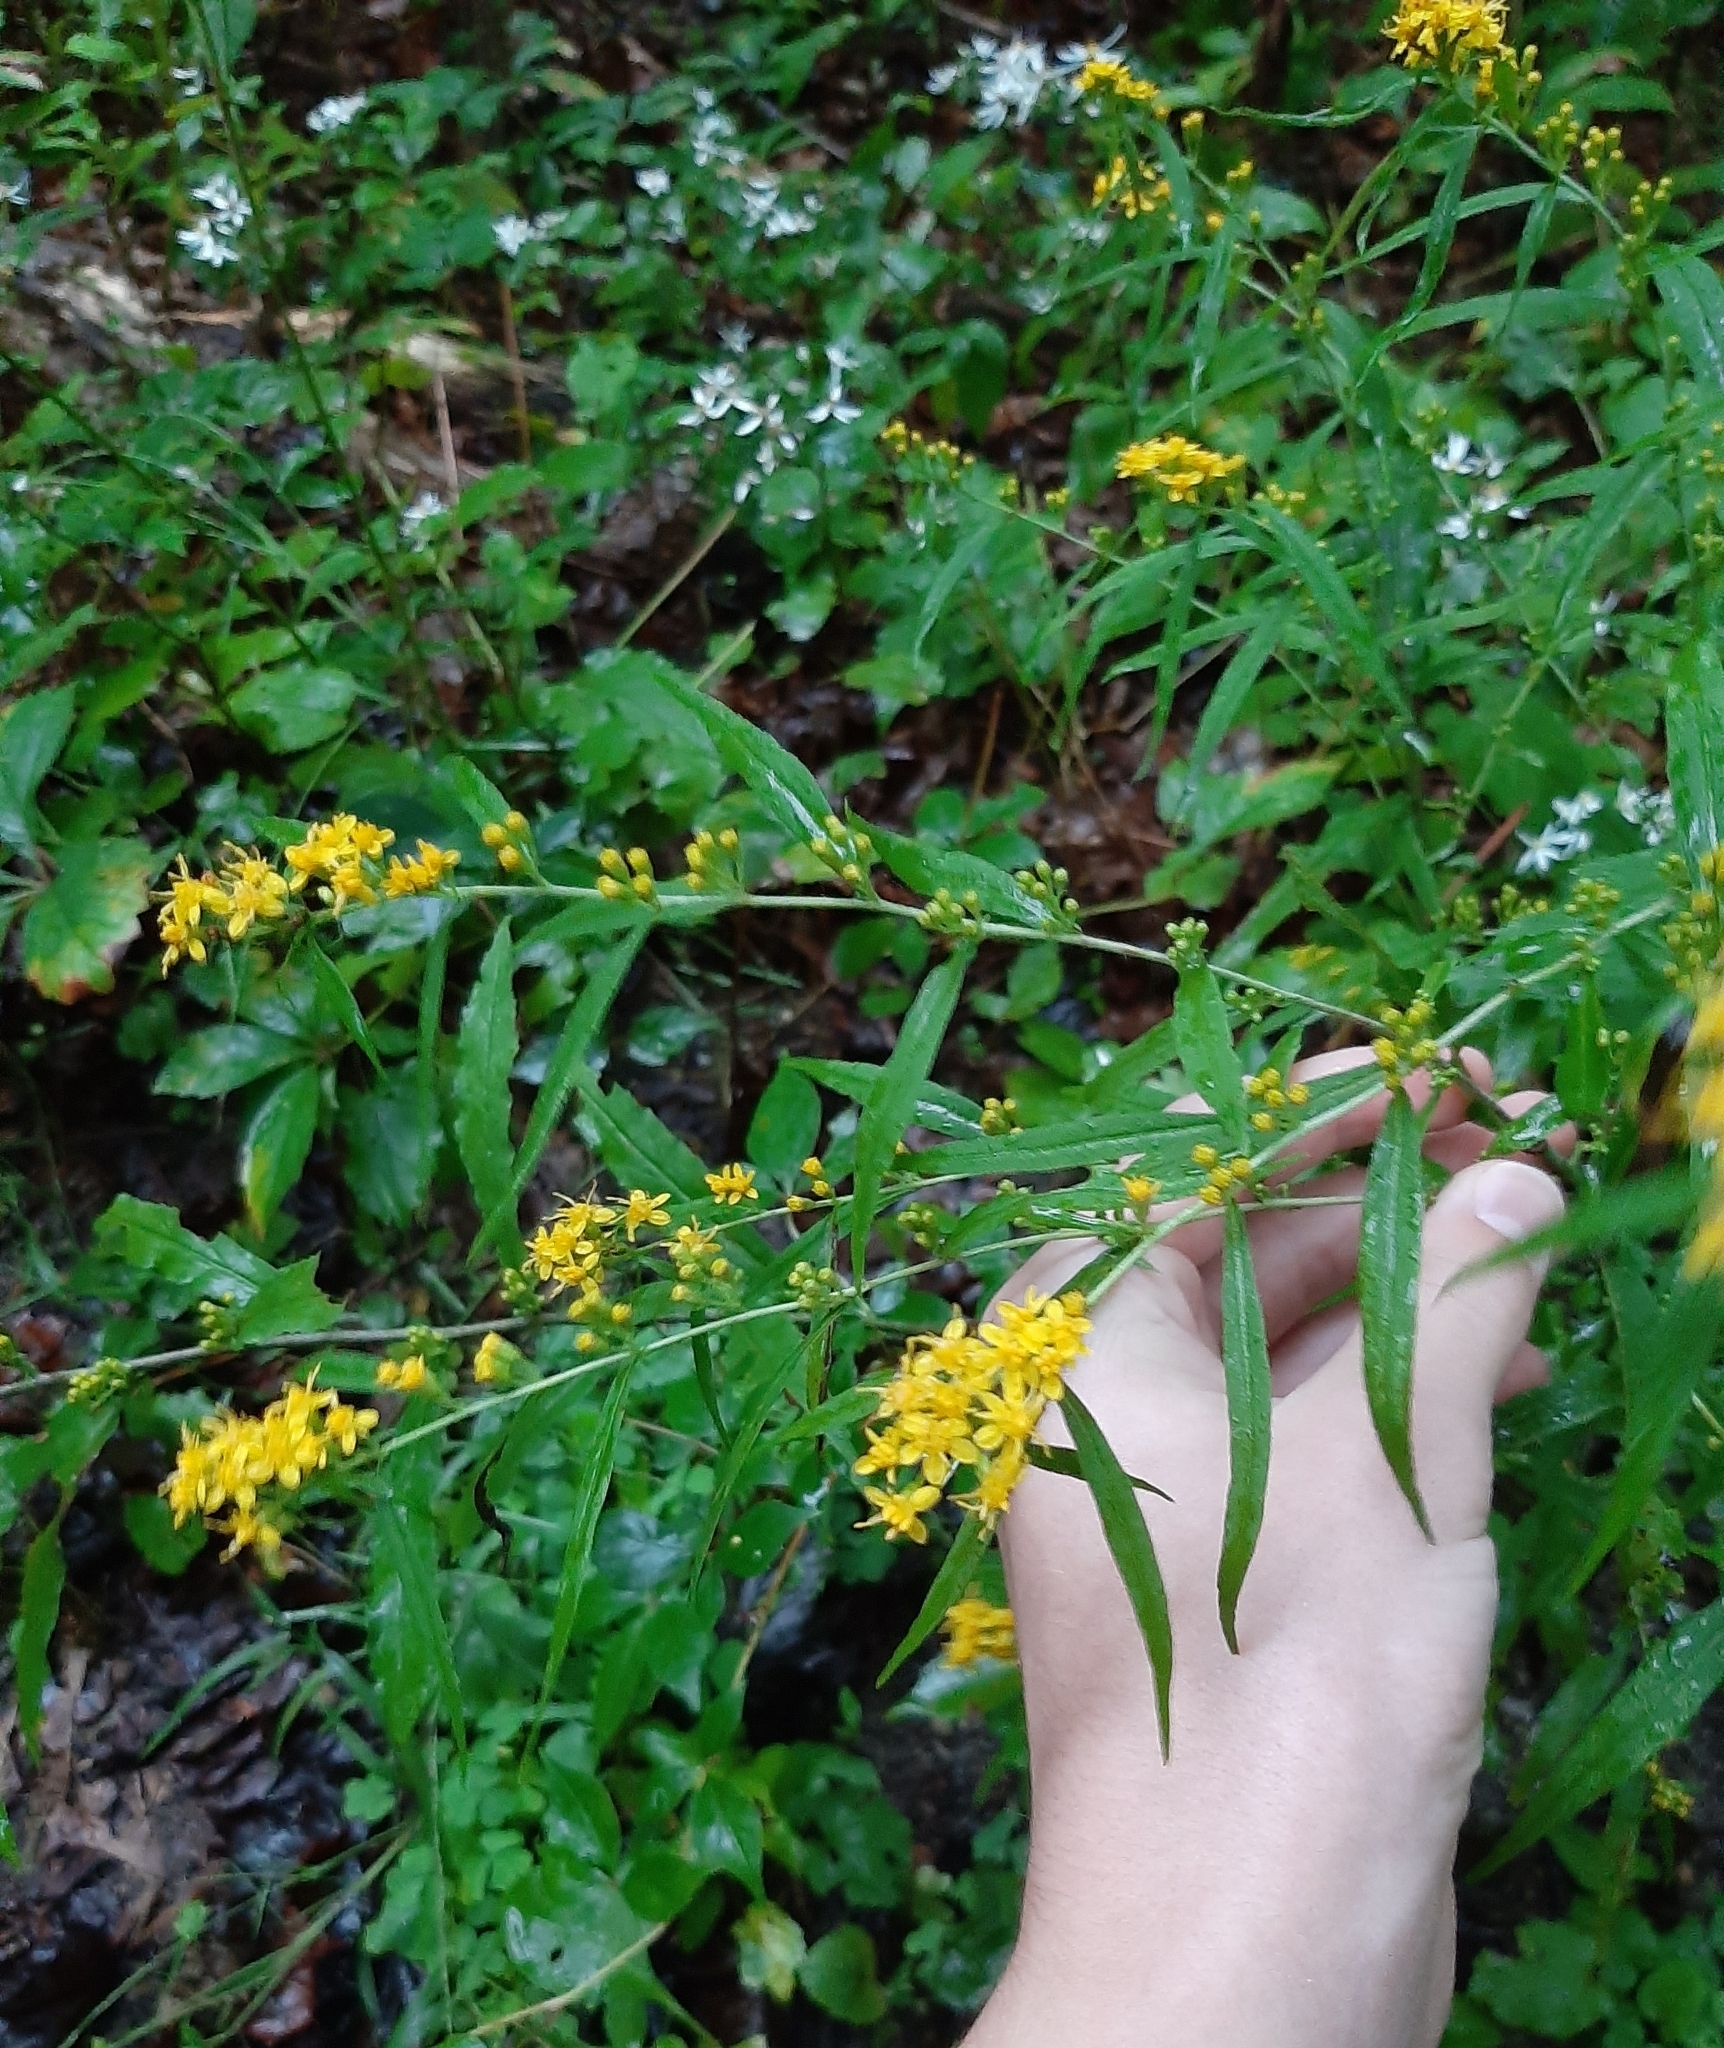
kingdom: Plantae
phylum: Tracheophyta
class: Magnoliopsida
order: Asterales
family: Asteraceae
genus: Solidago
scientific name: Solidago caesia
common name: Woodland goldenrod
